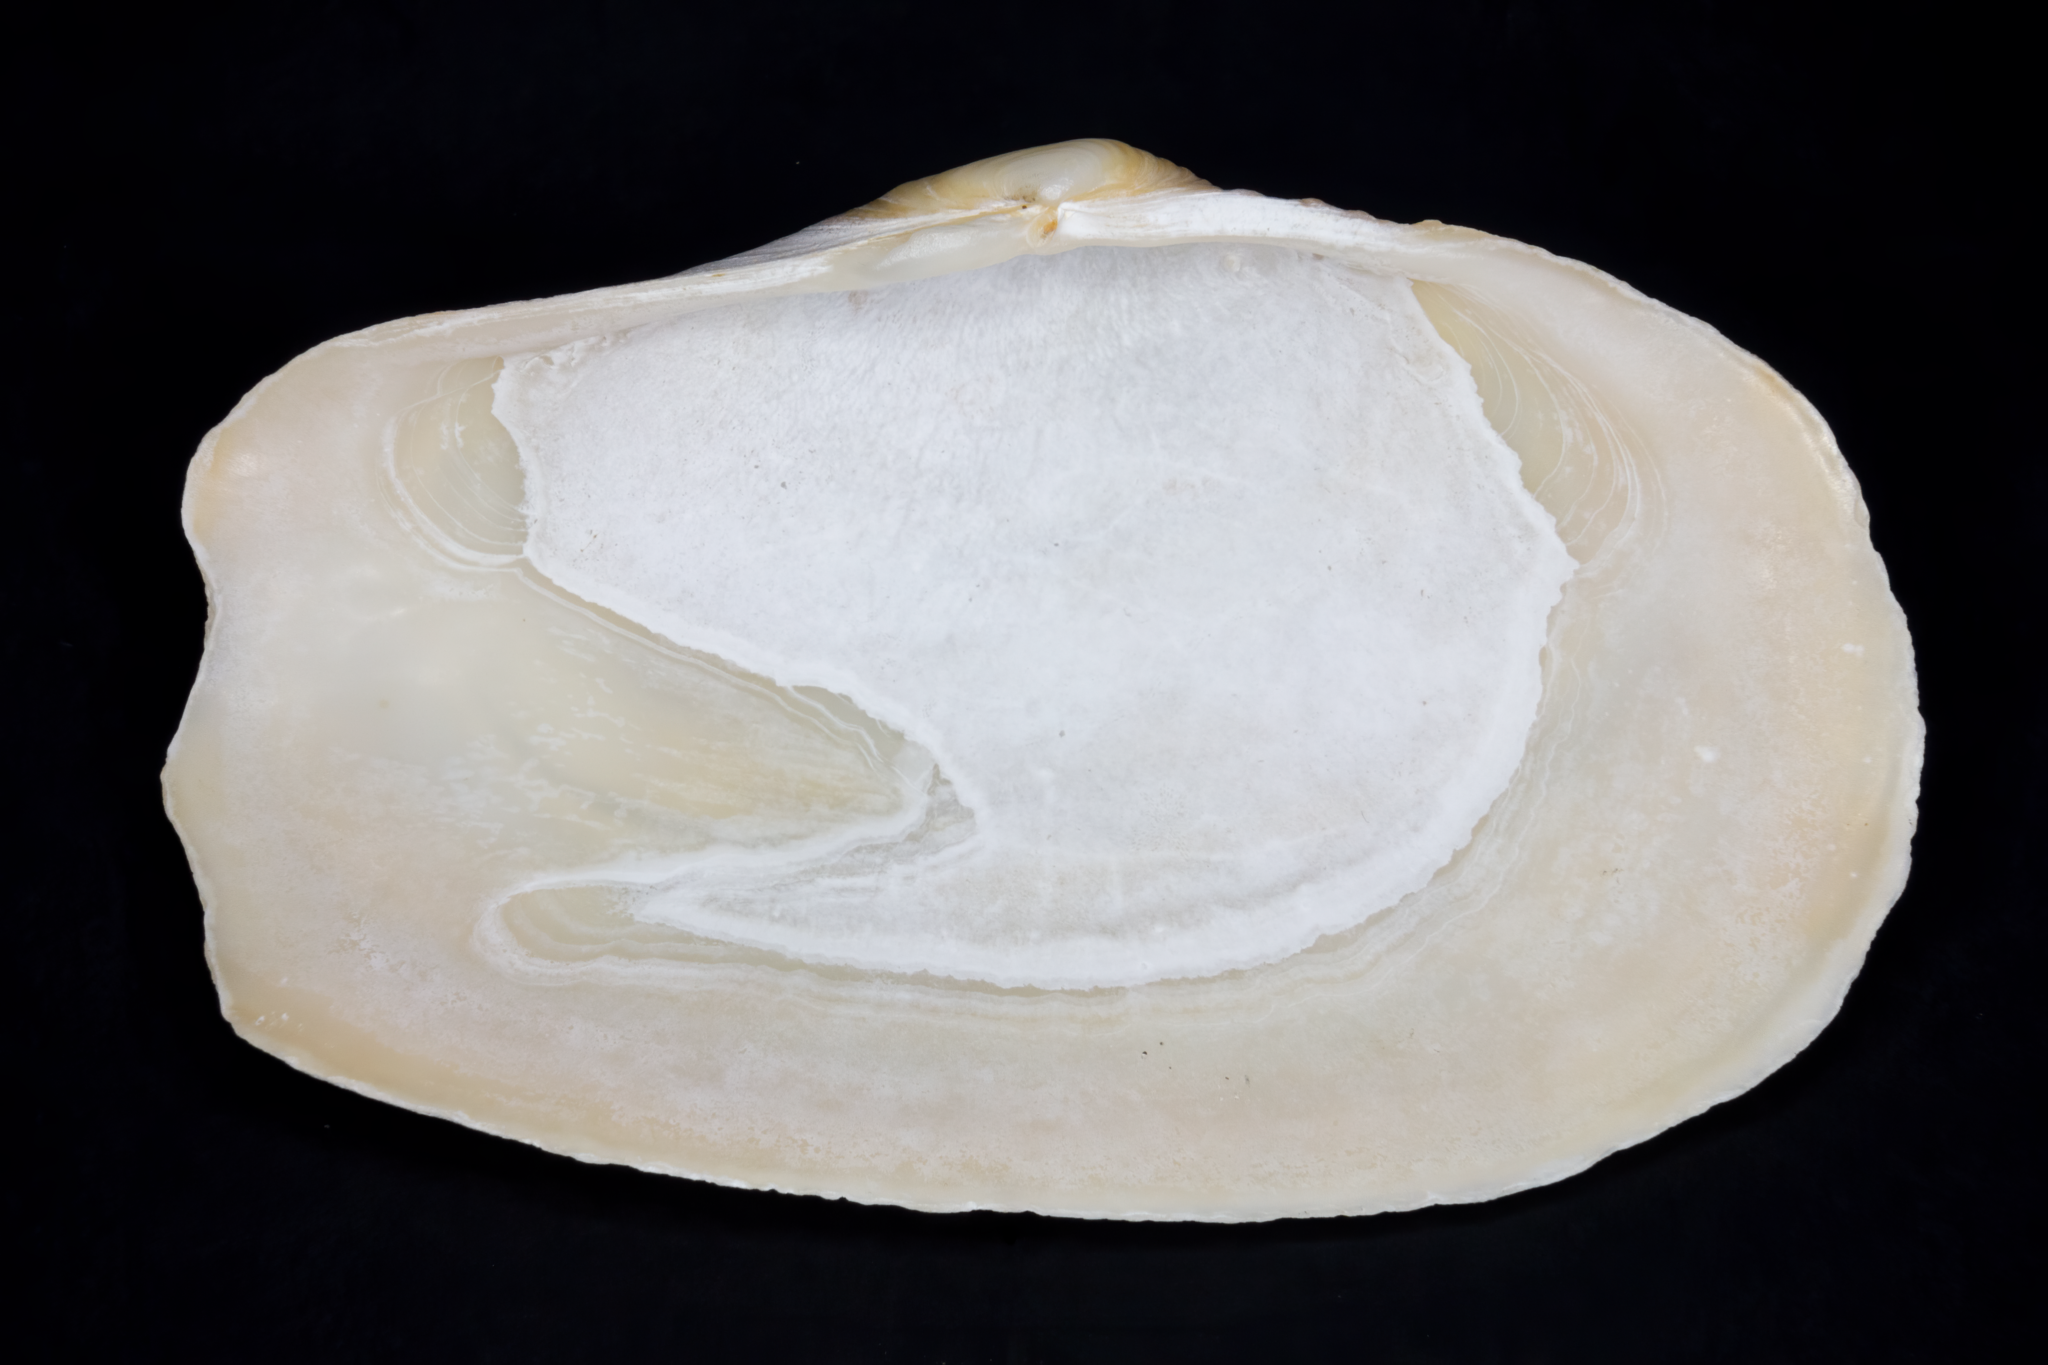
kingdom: Animalia
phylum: Mollusca
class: Bivalvia
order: Adapedonta
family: Hiatellidae
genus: Panopea
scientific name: Panopea zelandica
